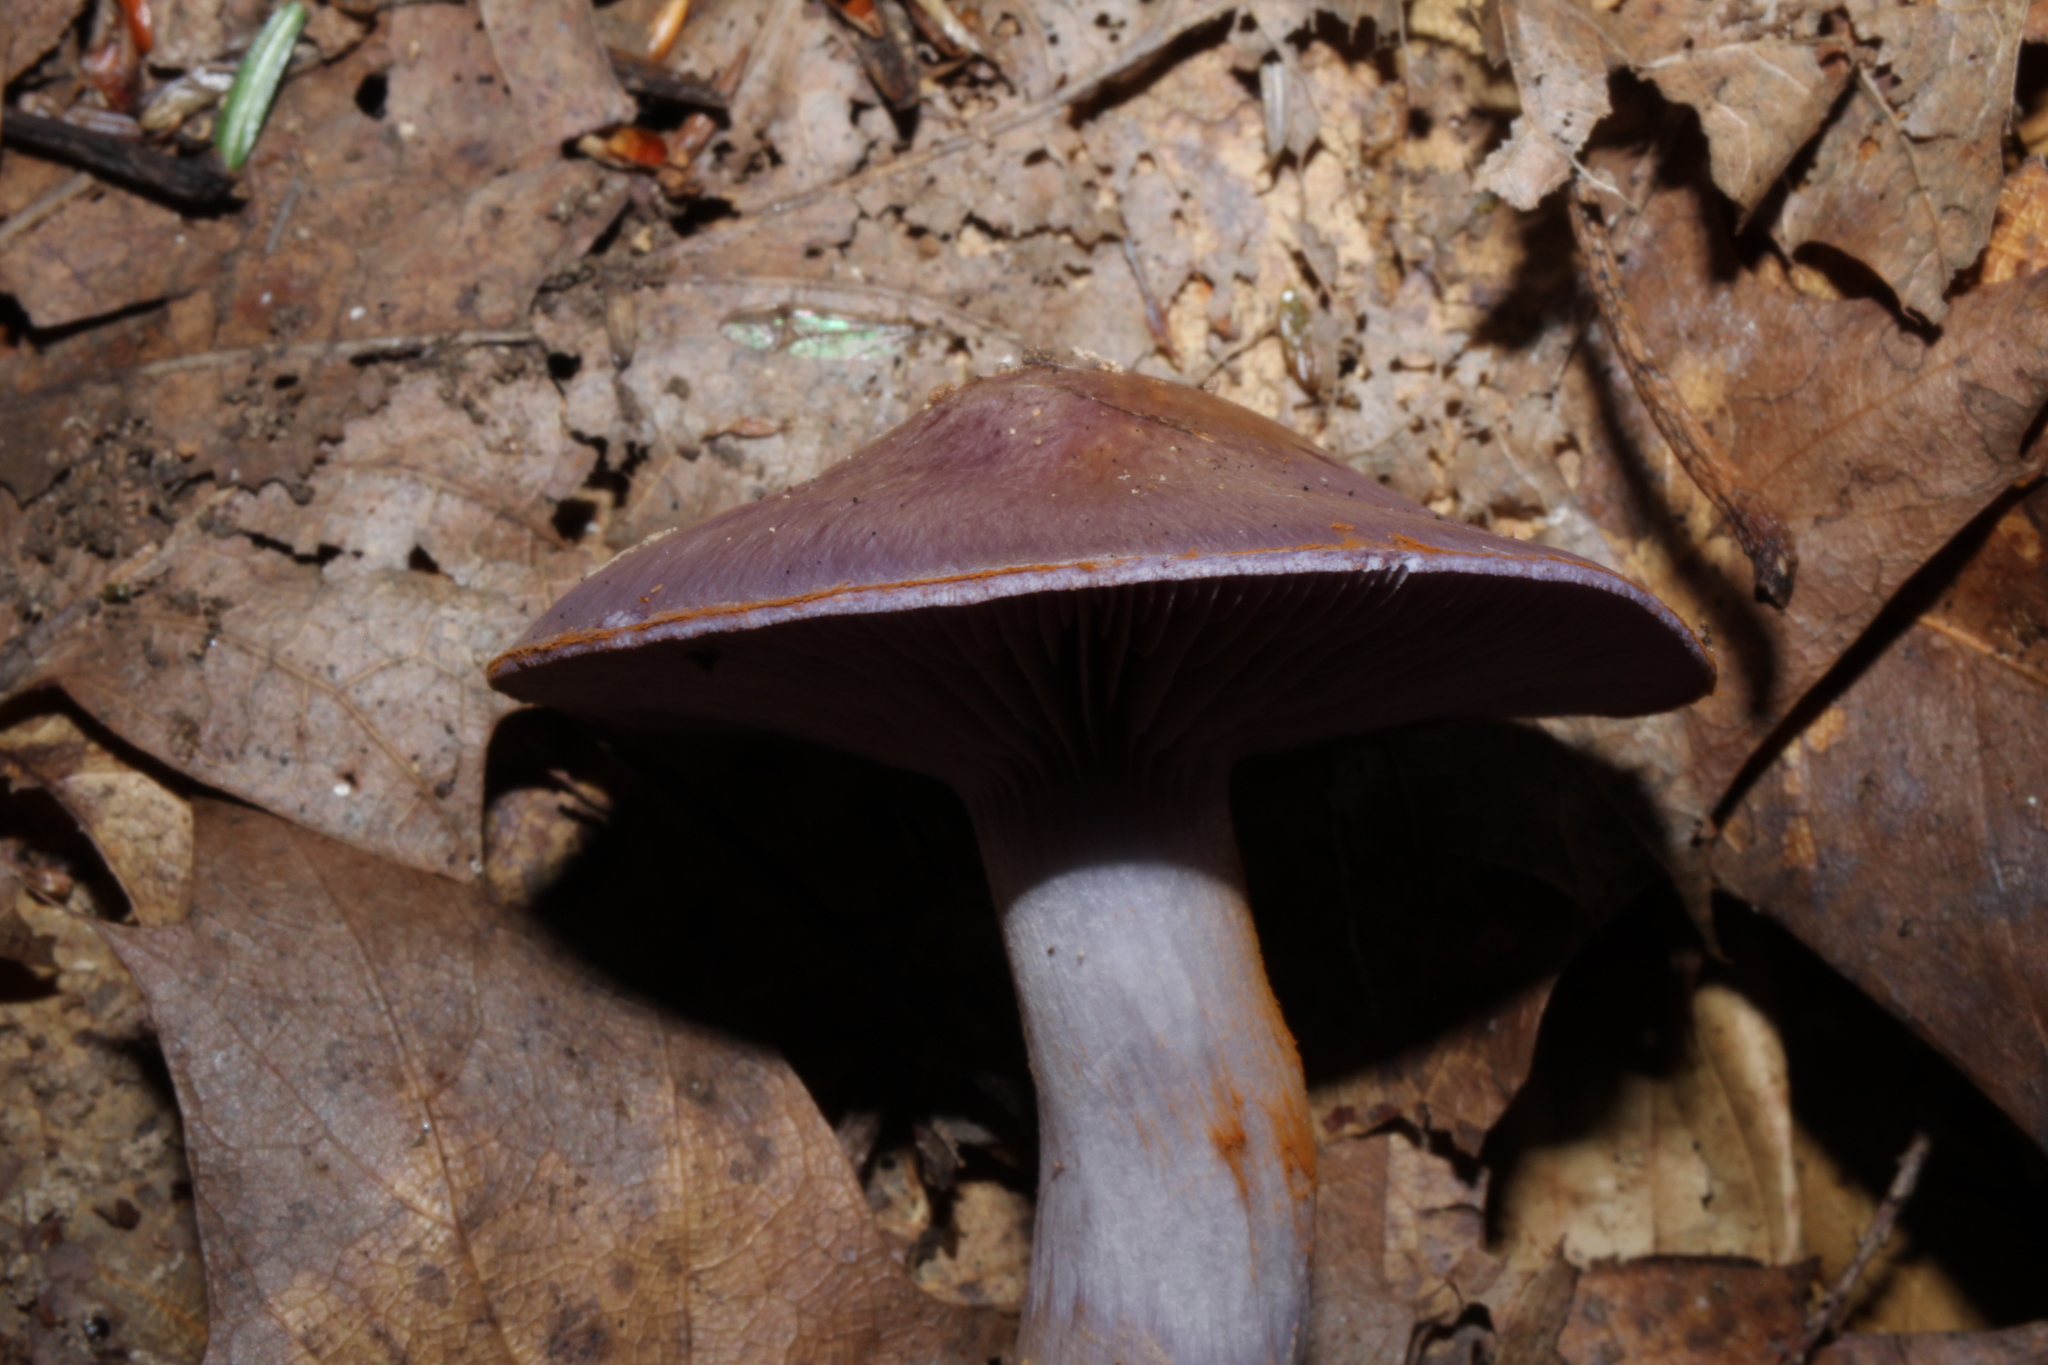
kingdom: Fungi
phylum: Basidiomycota
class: Agaricomycetes
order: Agaricales
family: Cortinariaceae
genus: Cortinarius
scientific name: Cortinarius iodeoides
